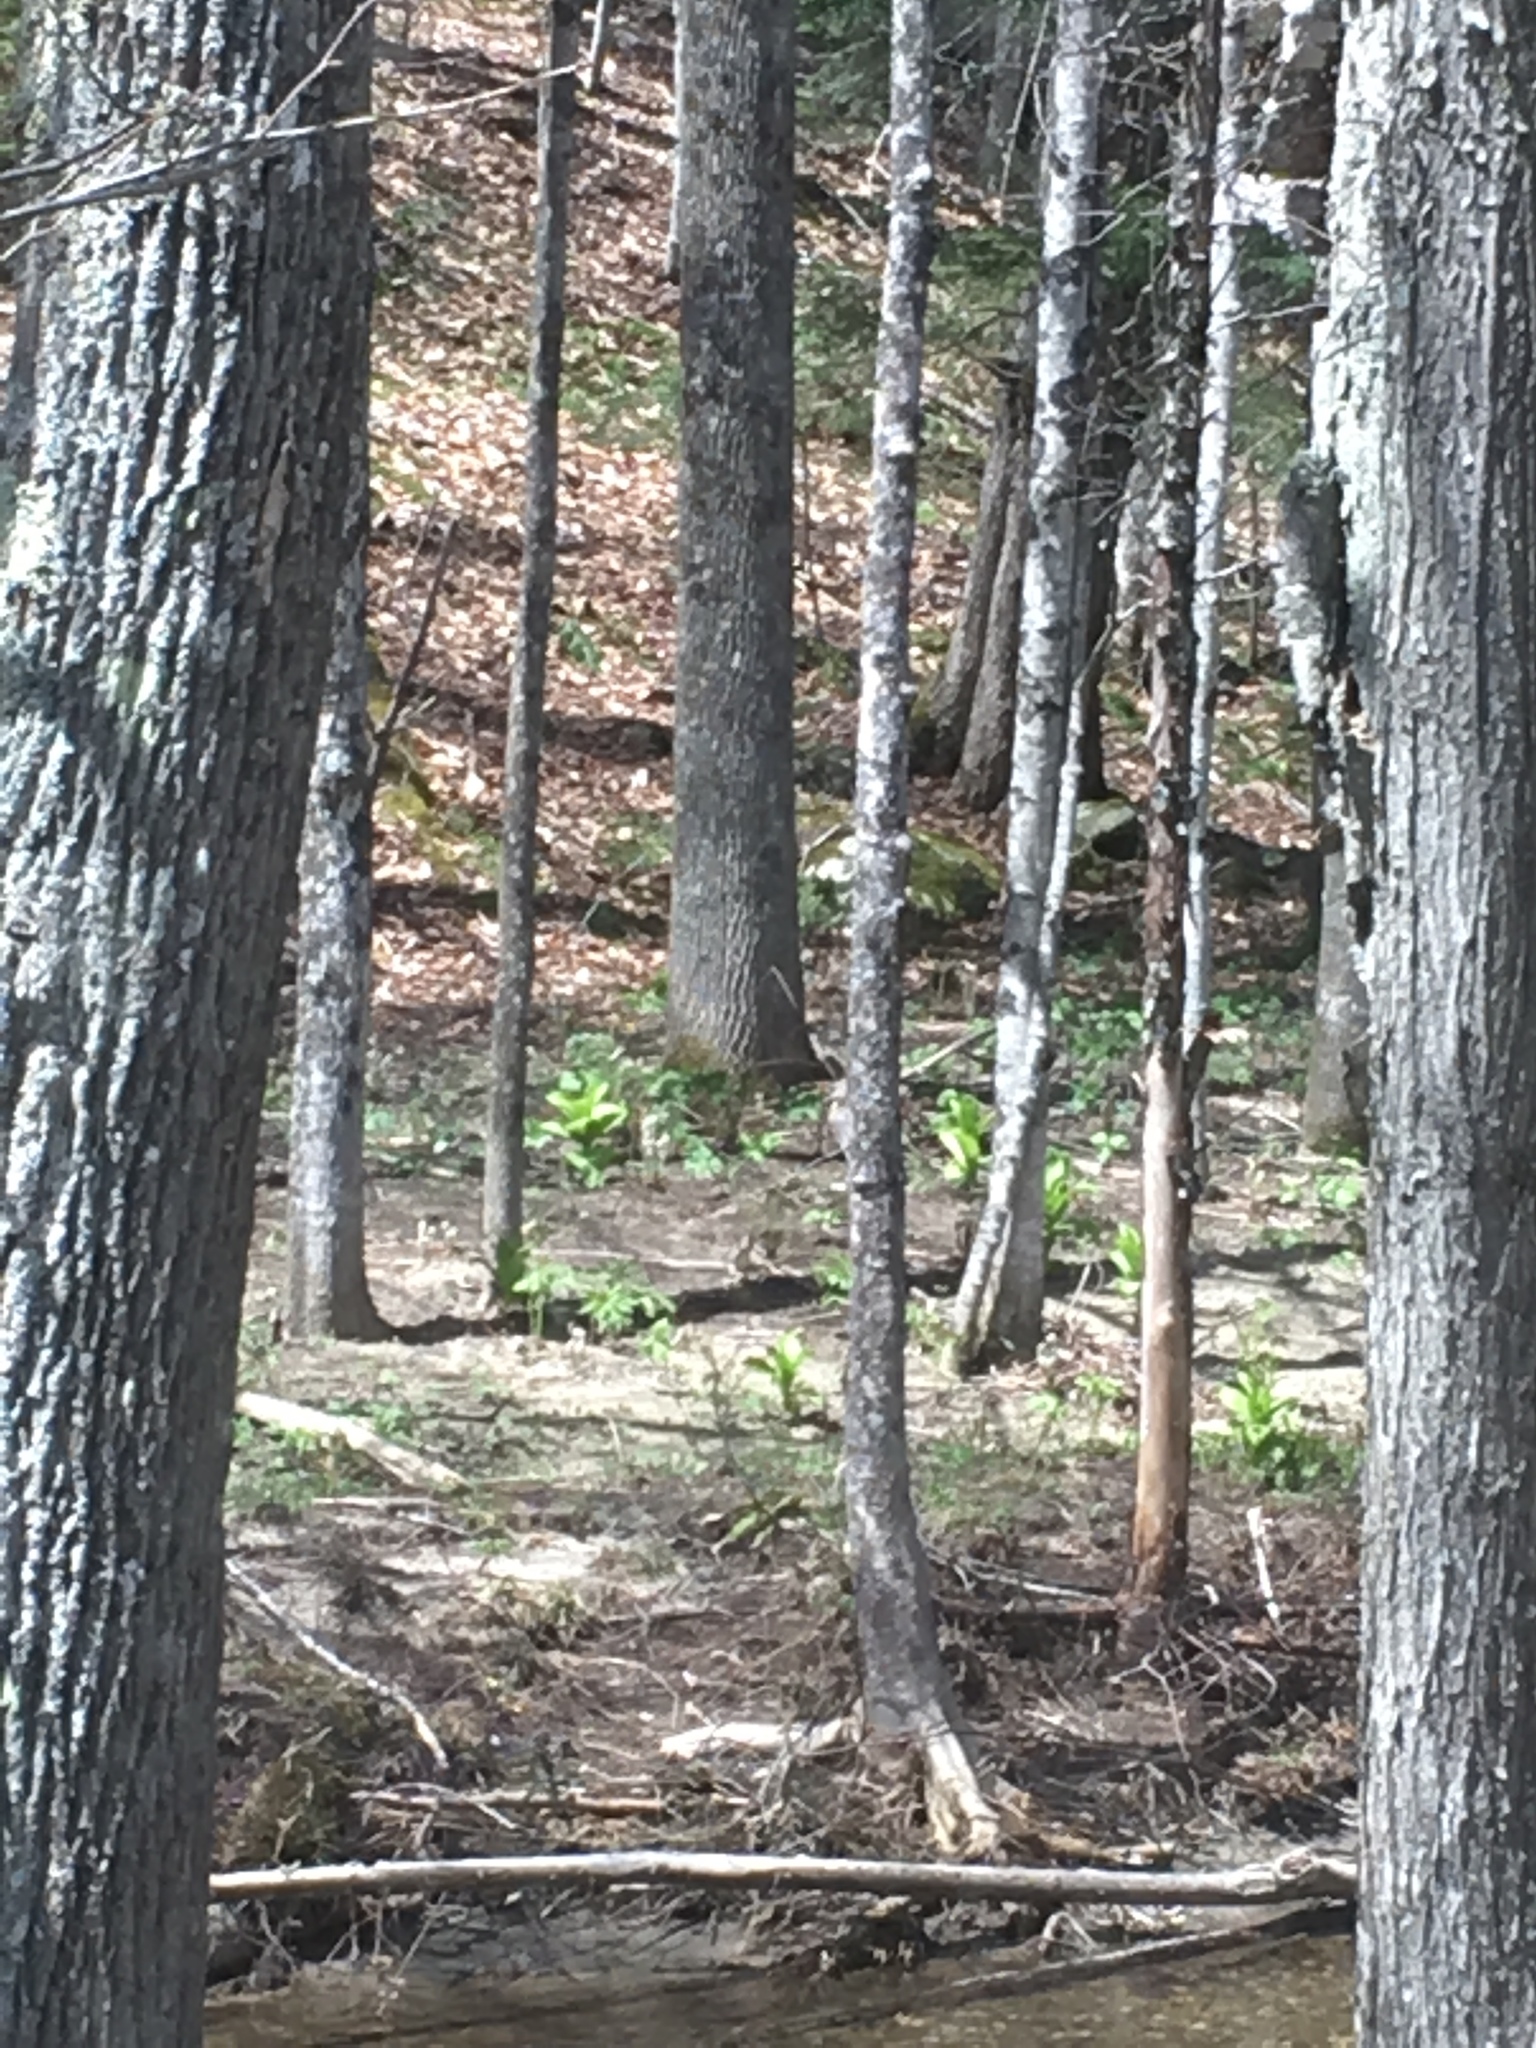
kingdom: Plantae
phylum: Tracheophyta
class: Liliopsida
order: Liliales
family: Melanthiaceae
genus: Veratrum
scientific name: Veratrum viride
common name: American false hellebore
